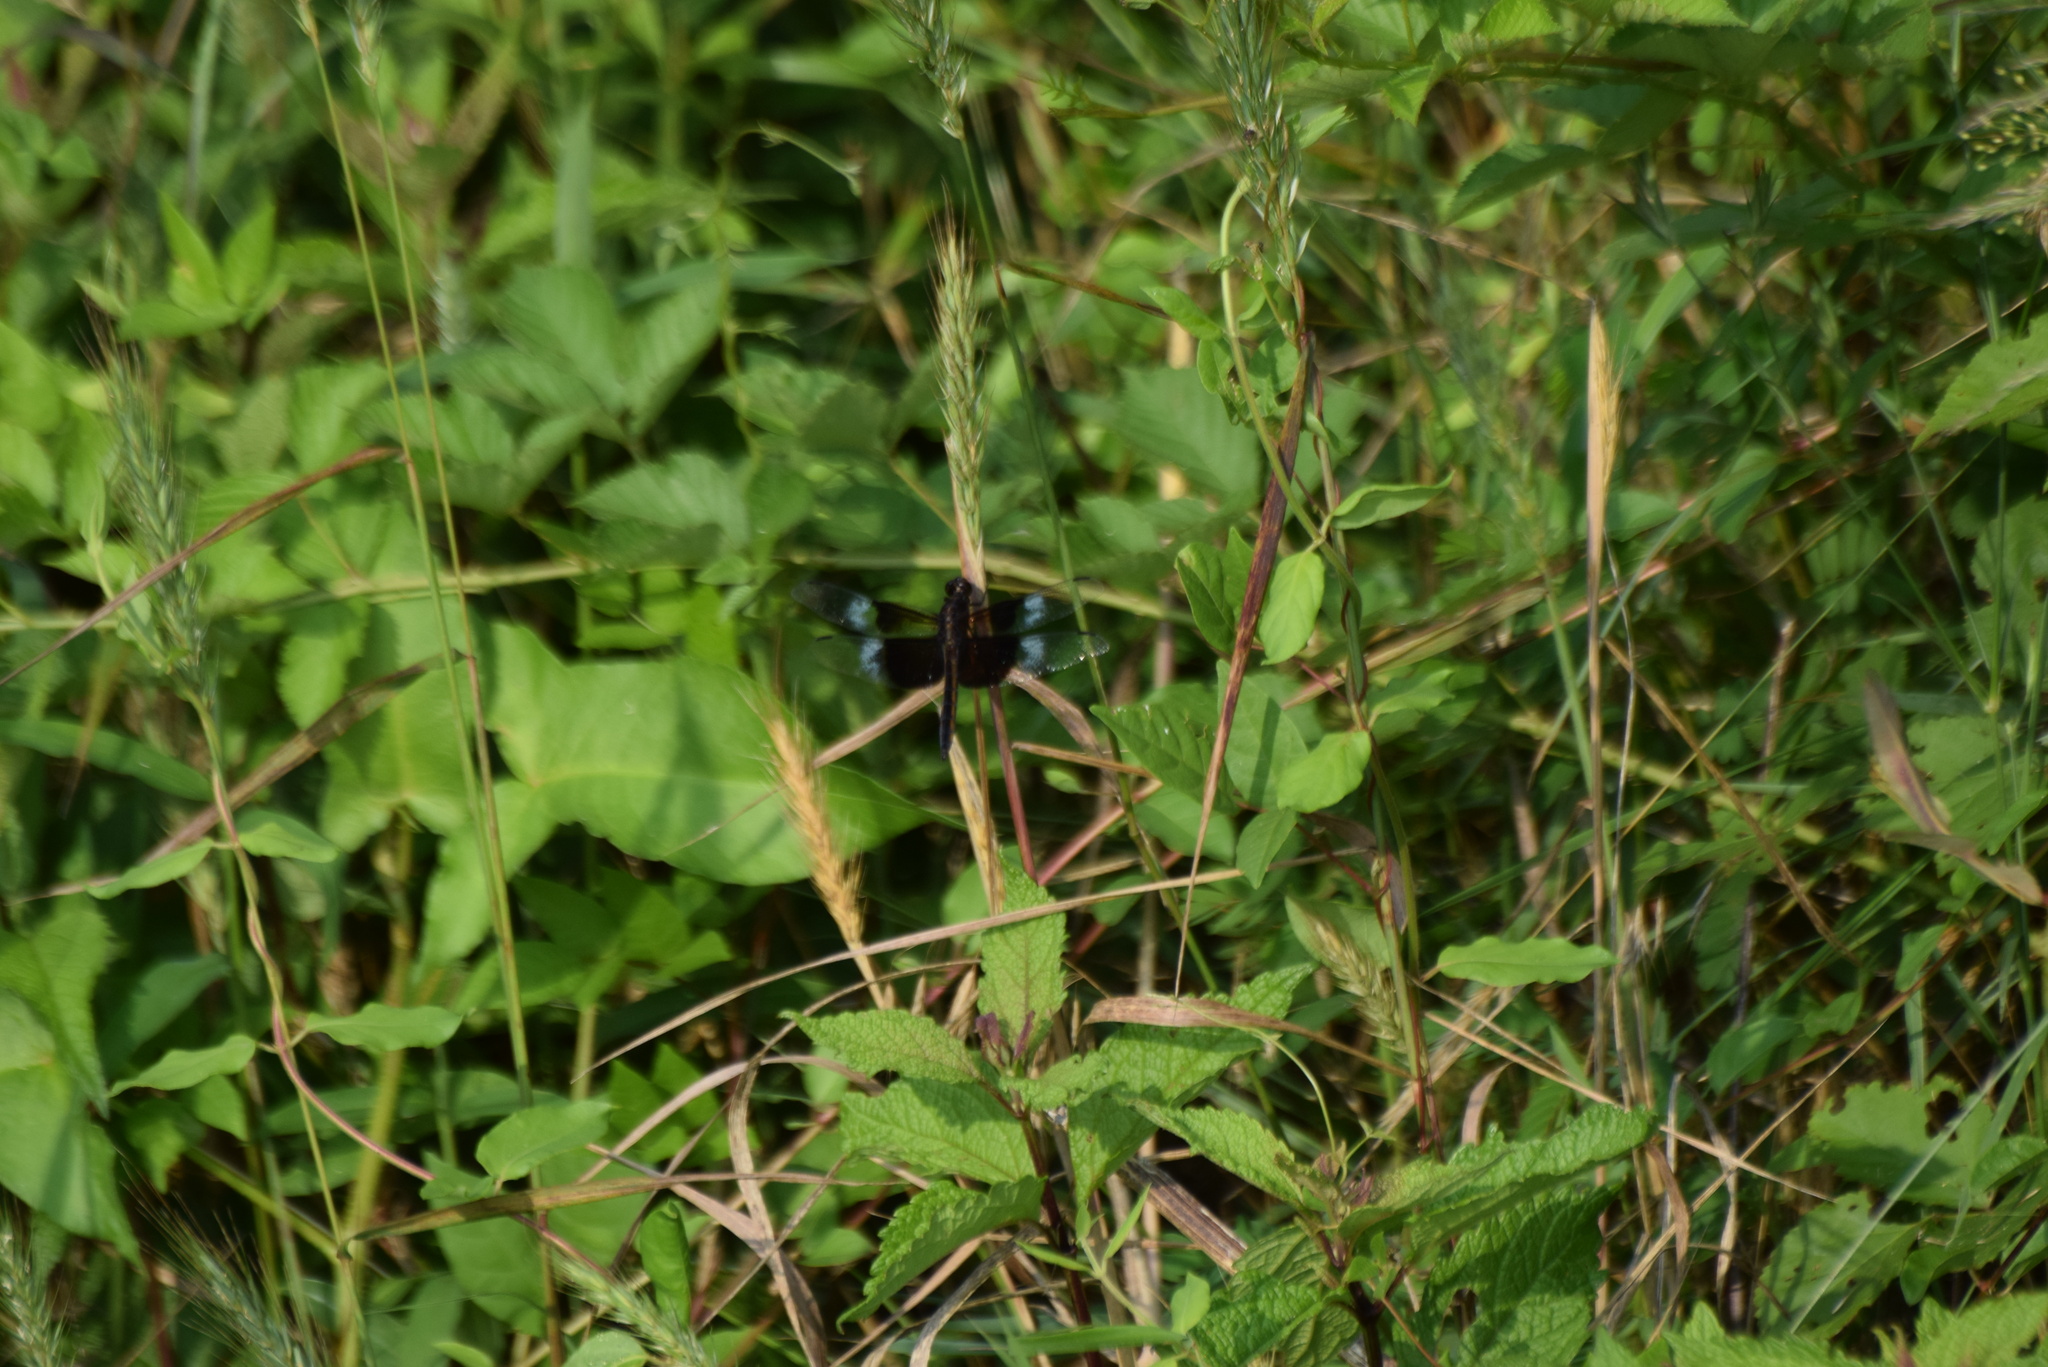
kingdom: Animalia
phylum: Arthropoda
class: Insecta
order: Odonata
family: Libellulidae
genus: Libellula
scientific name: Libellula luctuosa
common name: Widow skimmer
